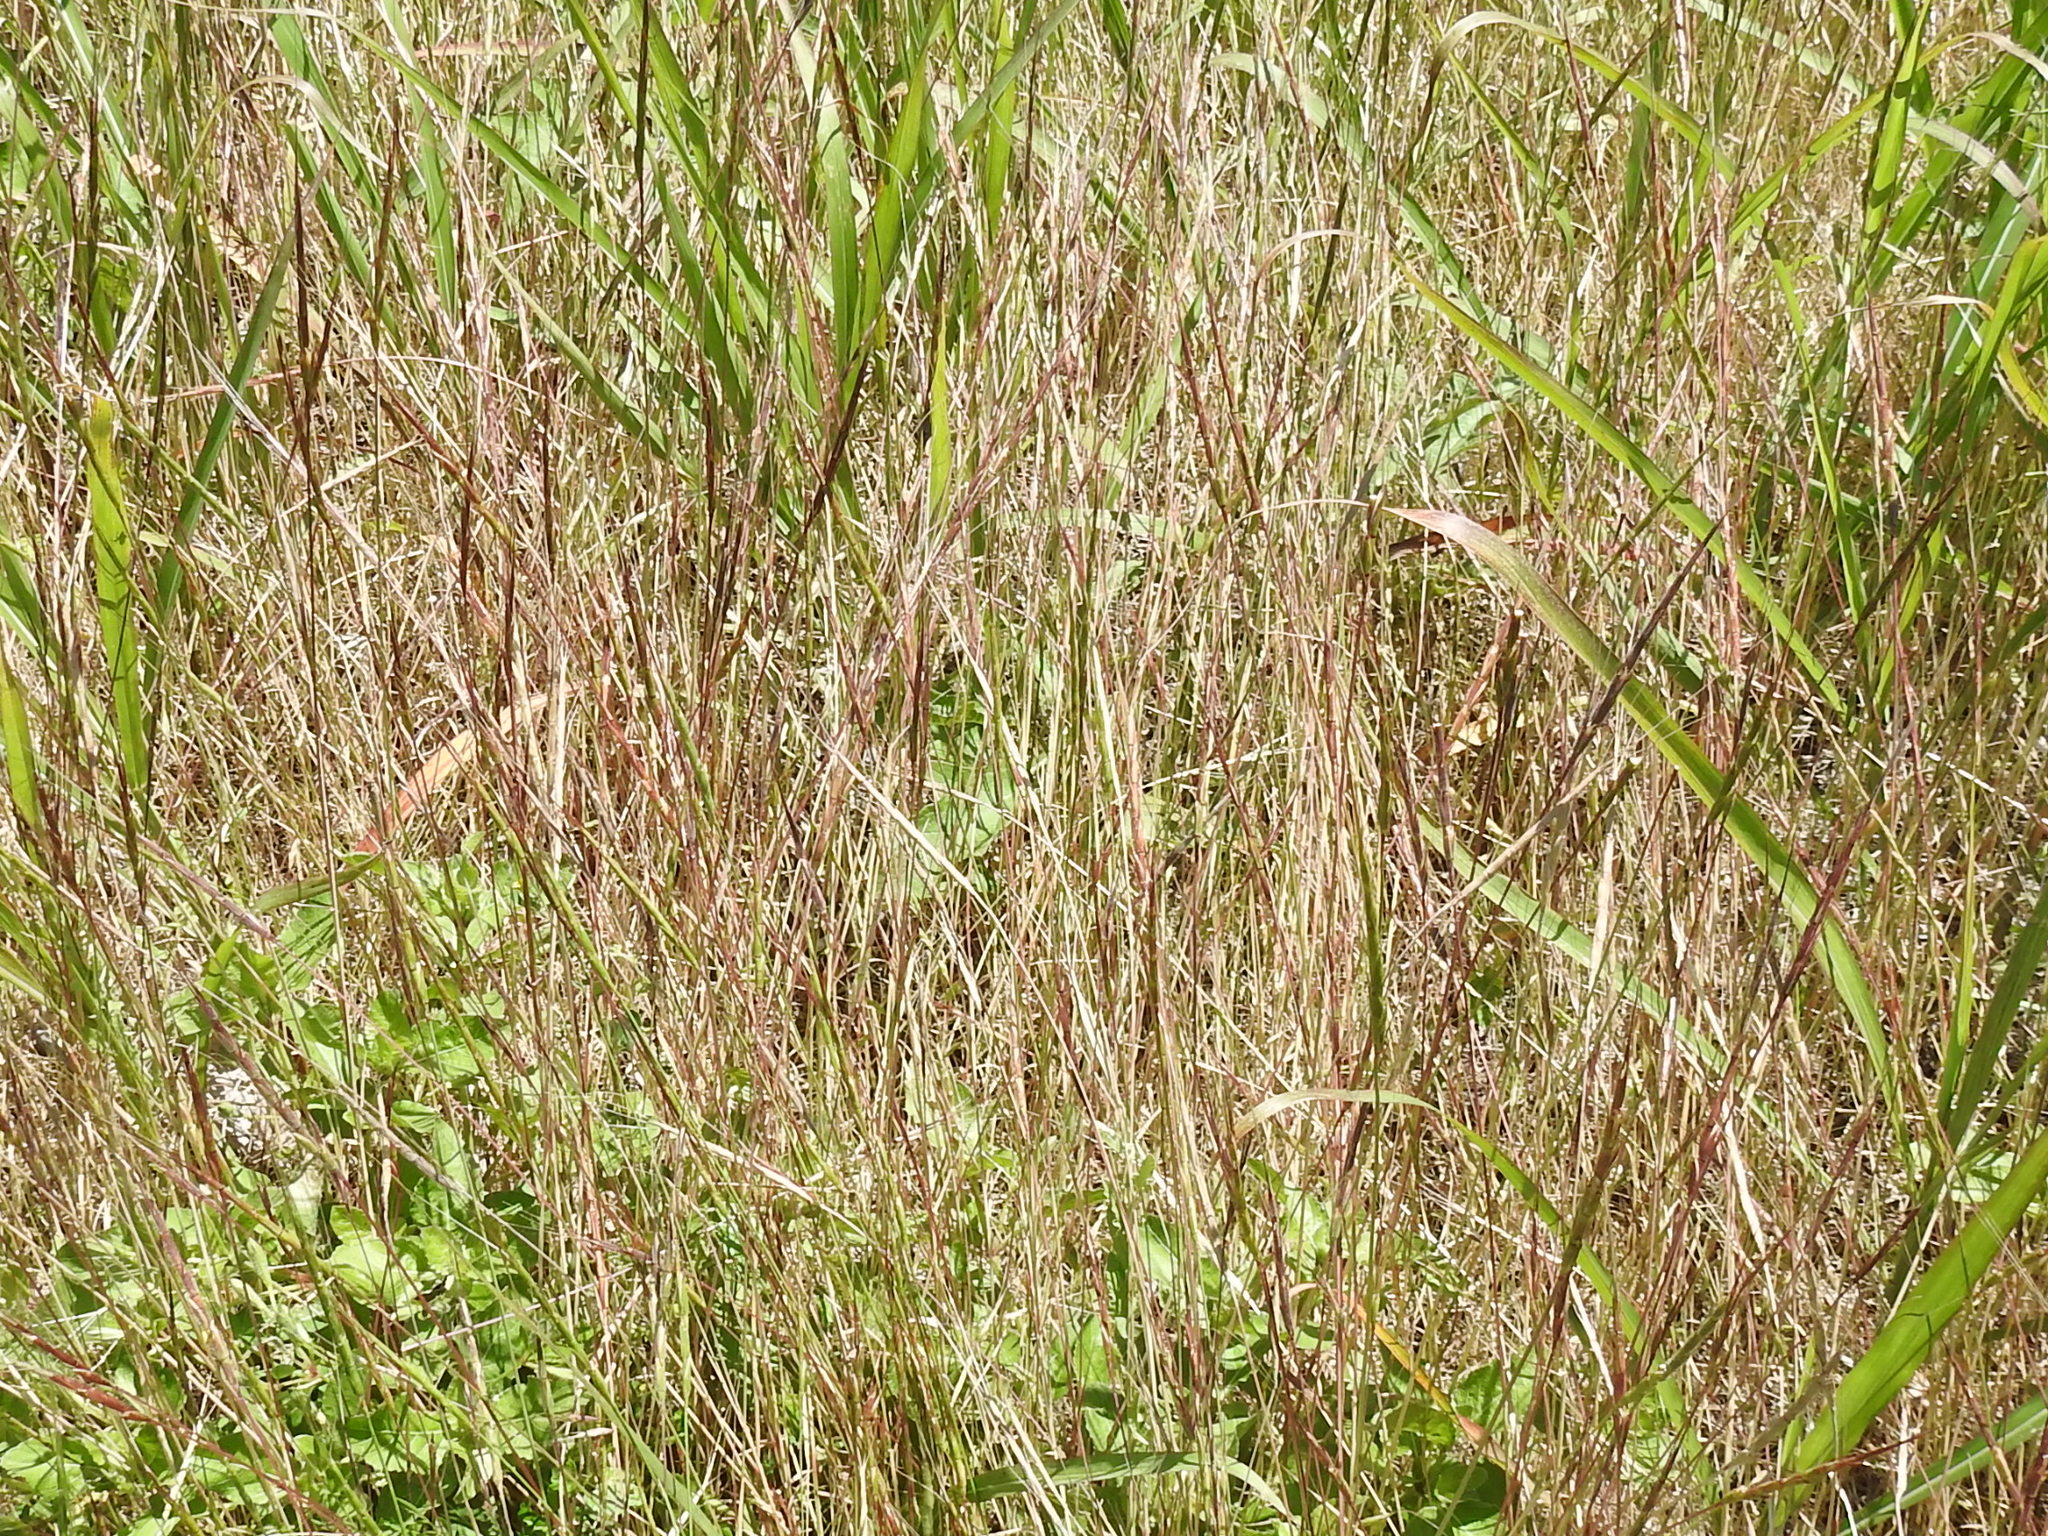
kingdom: Plantae
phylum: Tracheophyta
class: Liliopsida
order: Poales
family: Poaceae
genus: Aegilops
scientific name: Aegilops cylindrica
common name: Jointed goatgrass
